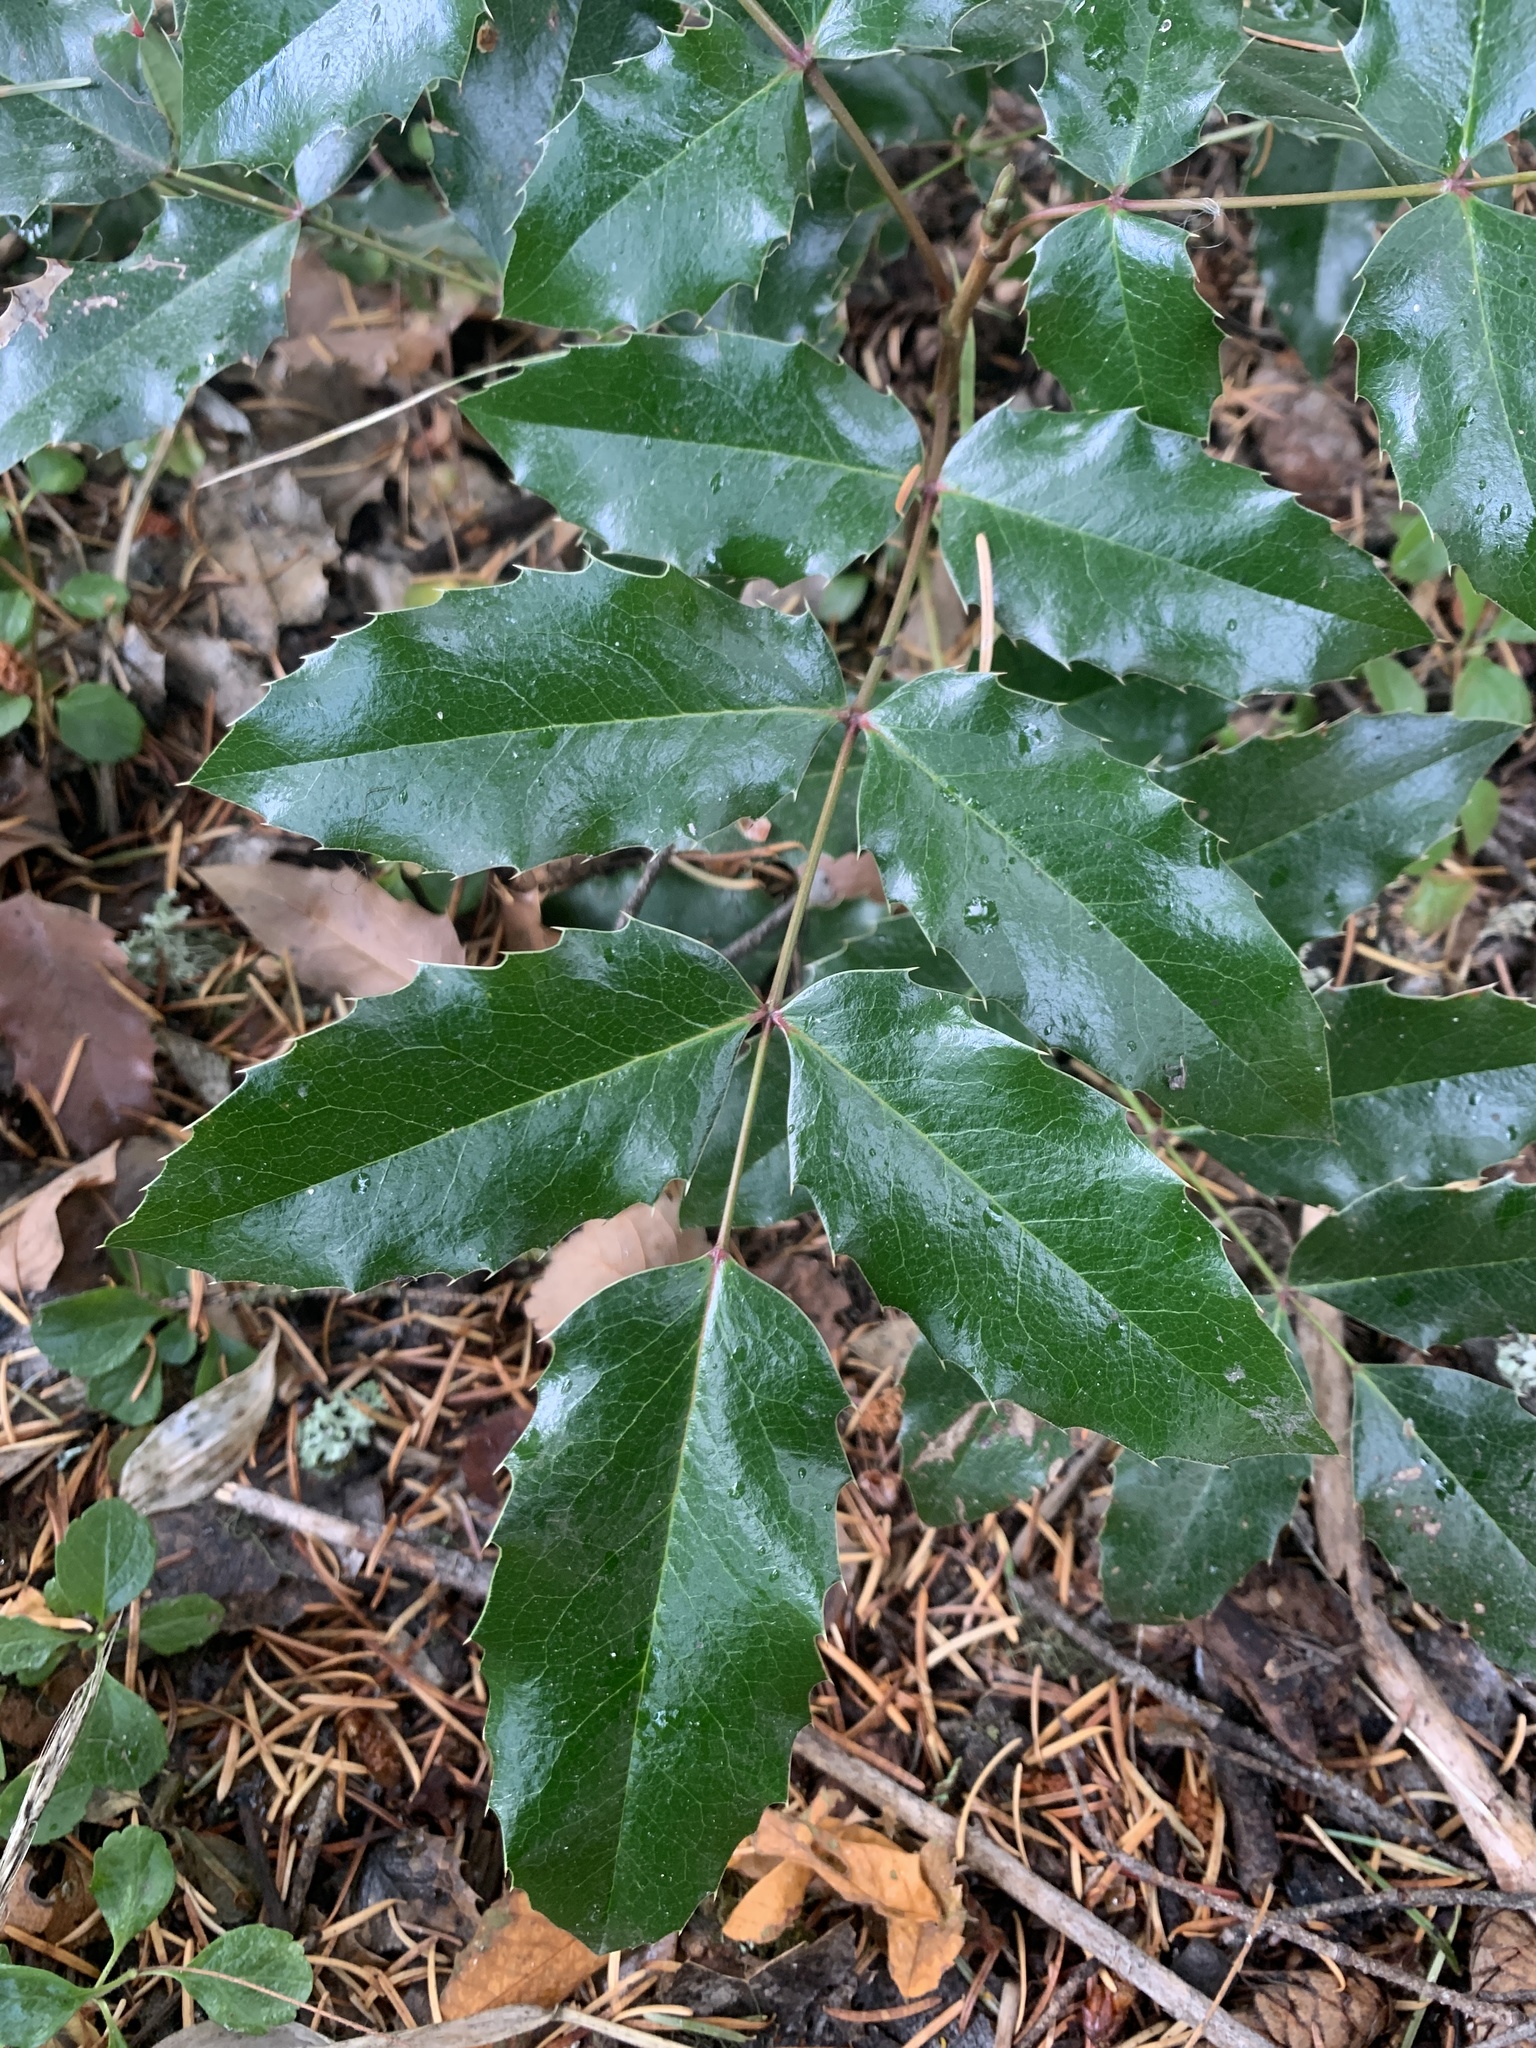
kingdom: Plantae
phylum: Tracheophyta
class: Magnoliopsida
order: Ranunculales
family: Berberidaceae
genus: Mahonia
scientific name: Mahonia aquifolium
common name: Oregon-grape
